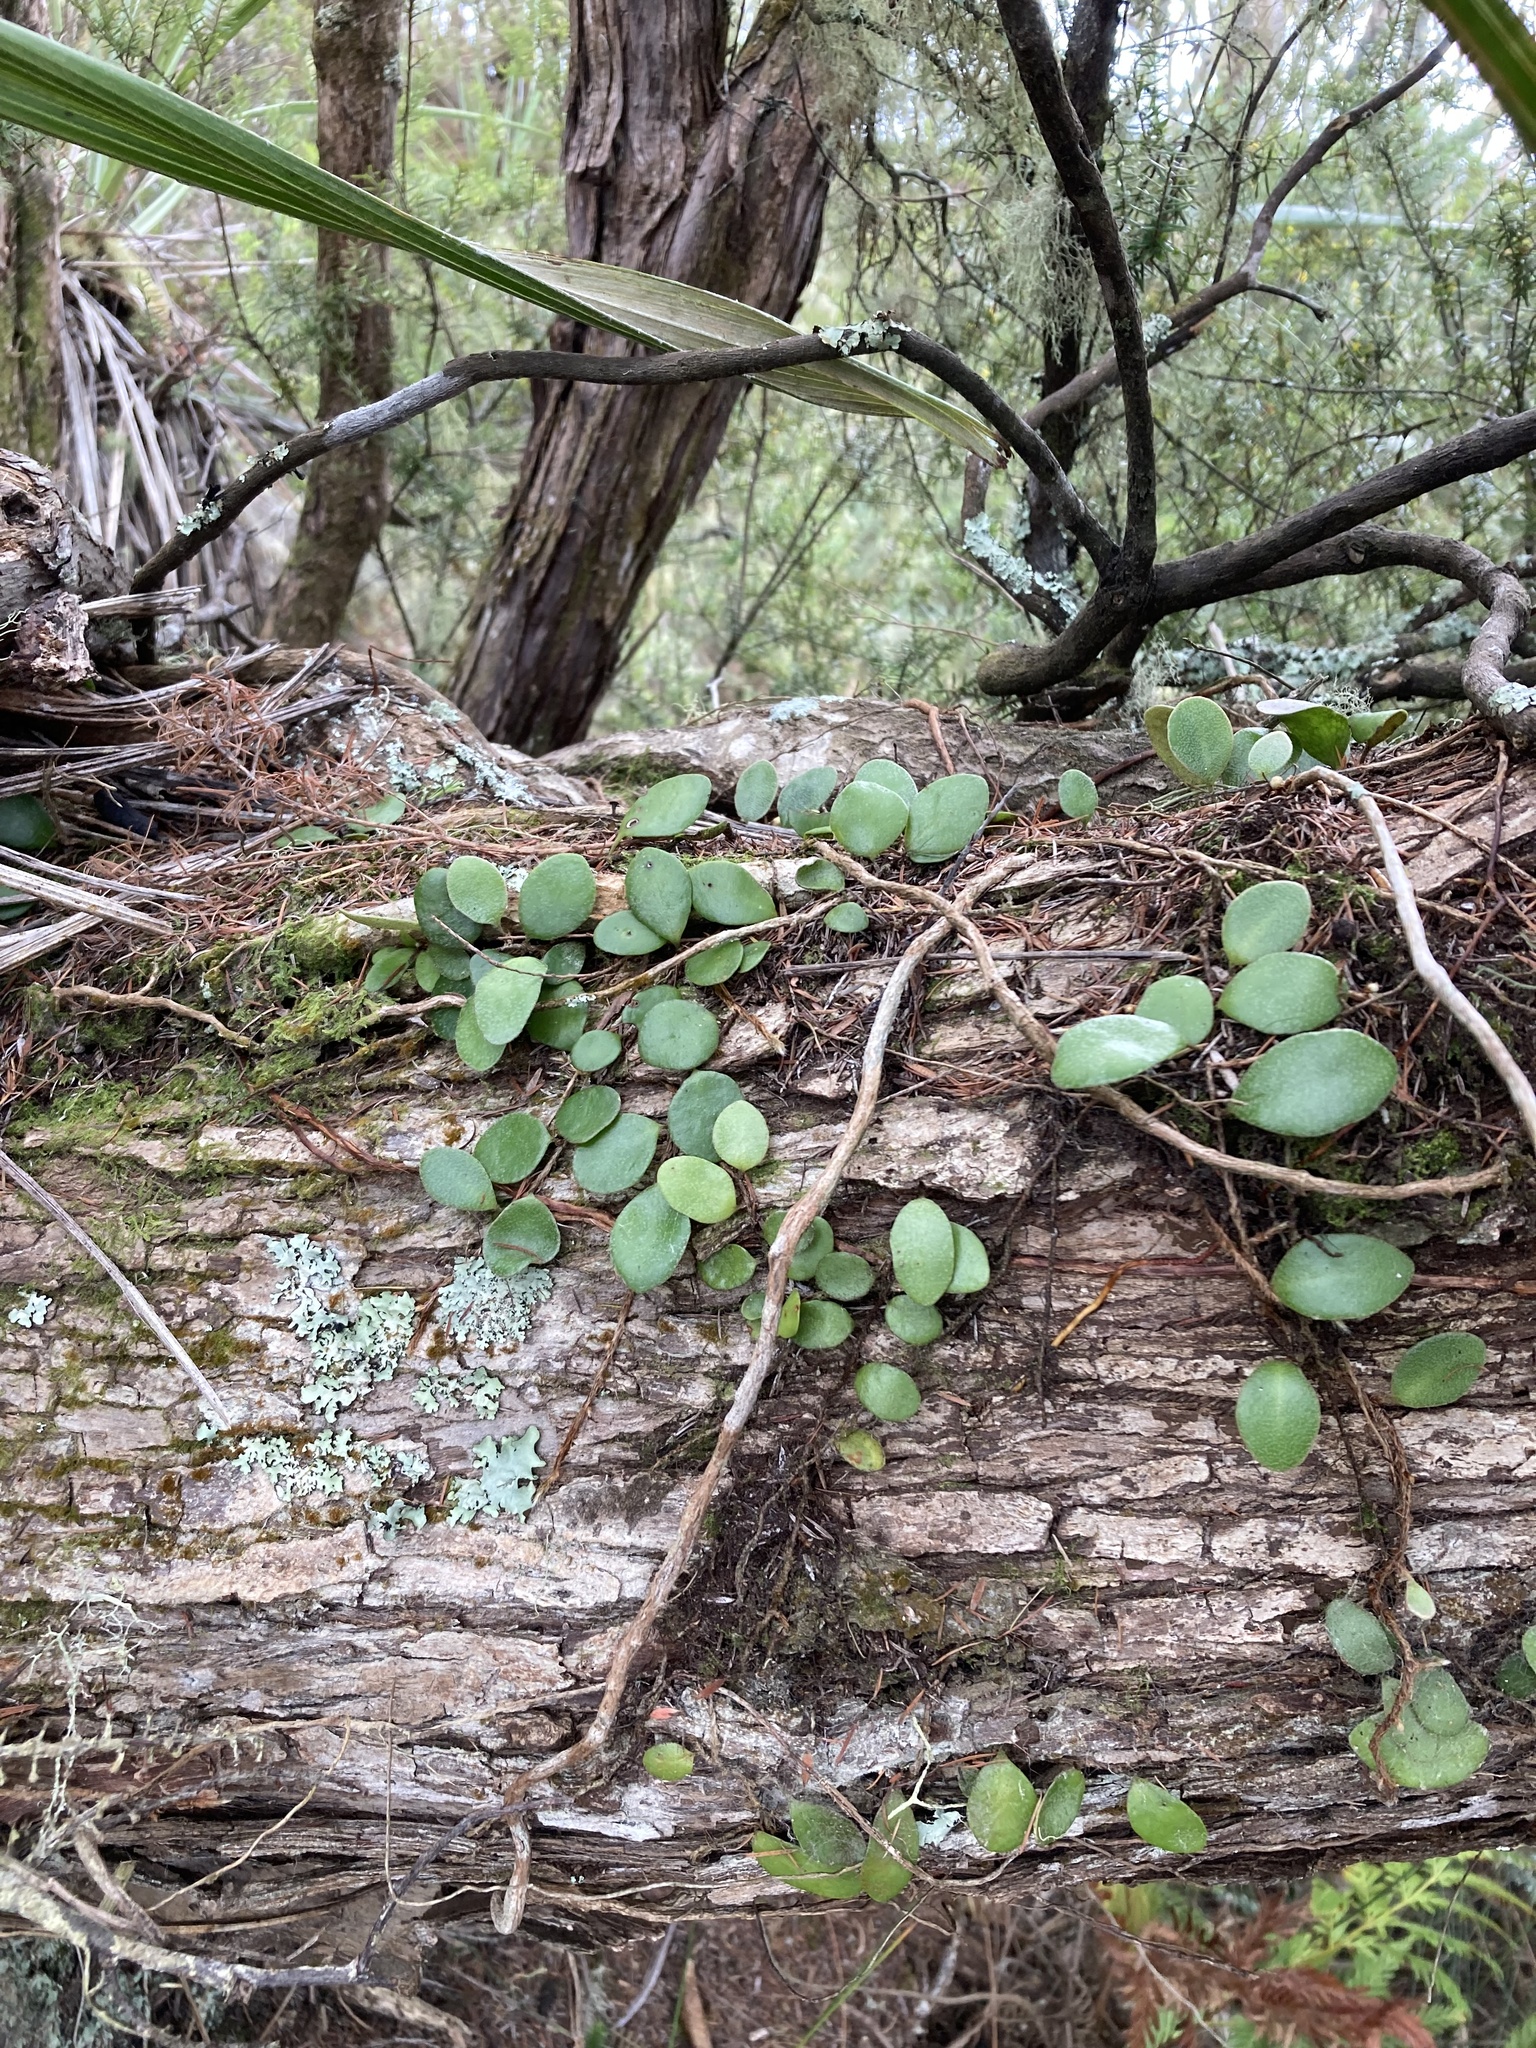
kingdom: Plantae
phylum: Tracheophyta
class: Polypodiopsida
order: Polypodiales
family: Polypodiaceae
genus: Pyrrosia
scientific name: Pyrrosia eleagnifolia
